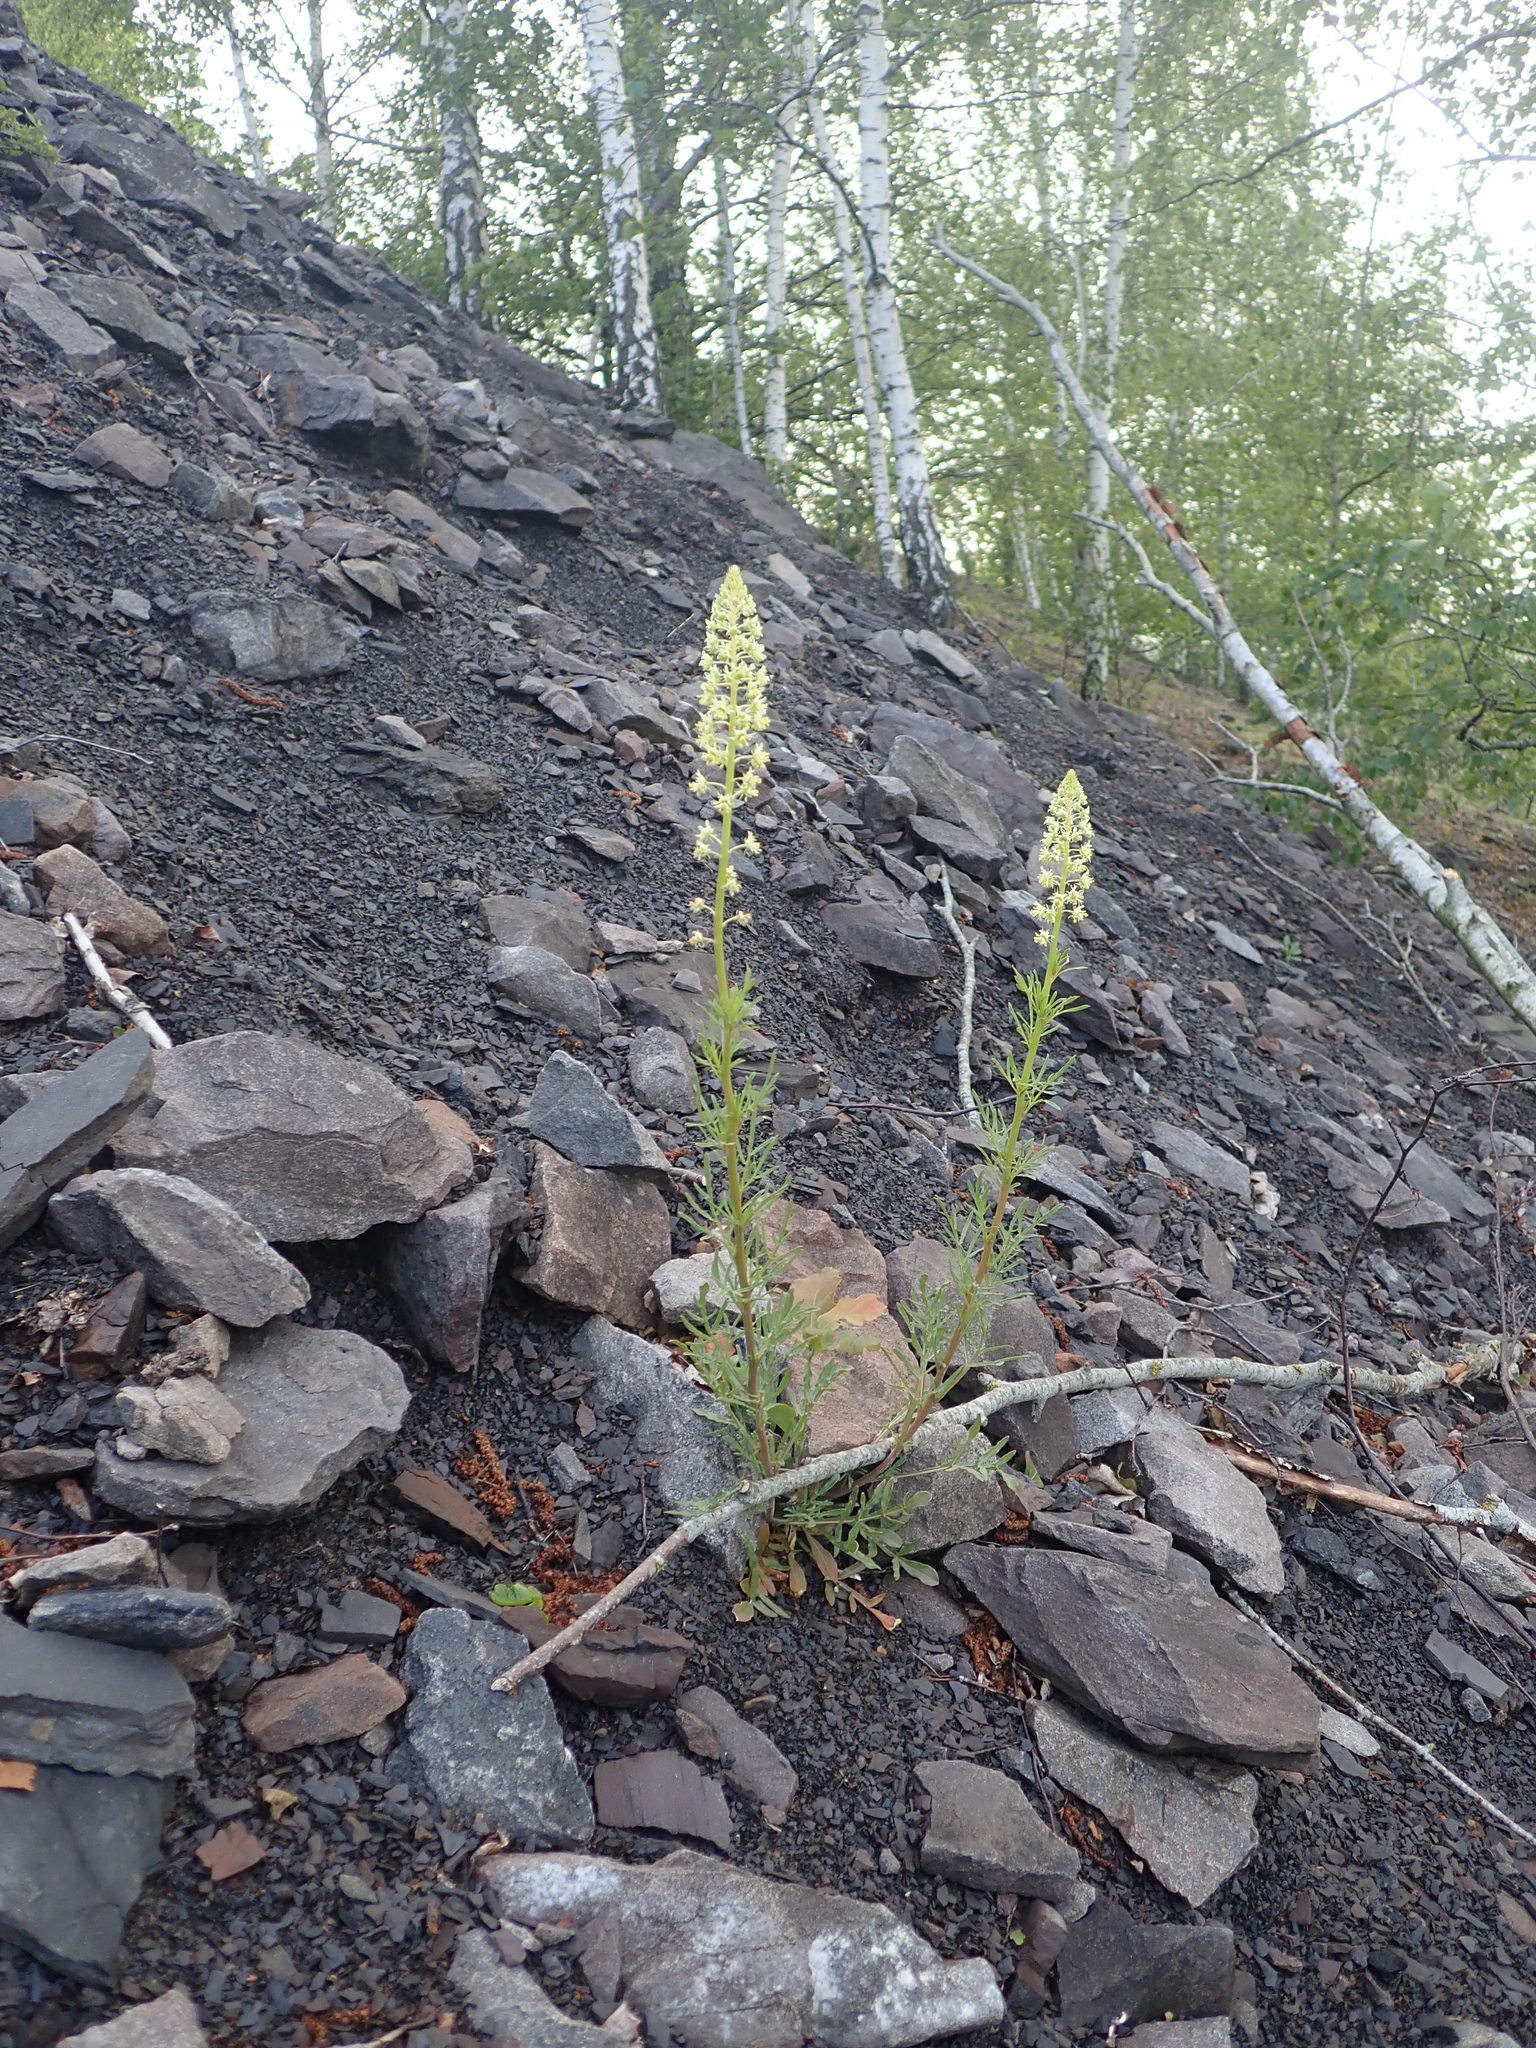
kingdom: Plantae
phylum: Tracheophyta
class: Magnoliopsida
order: Brassicales
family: Resedaceae
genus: Reseda
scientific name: Reseda lutea
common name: Wild mignonette
